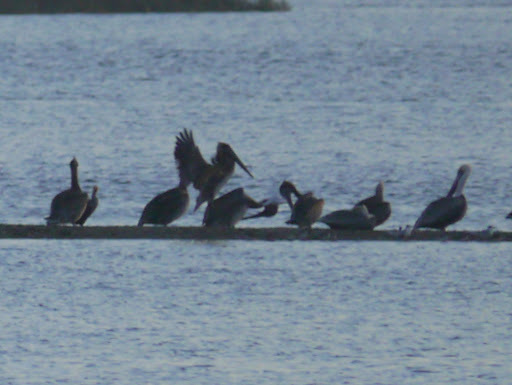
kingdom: Animalia
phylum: Chordata
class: Aves
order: Pelecaniformes
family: Pelecanidae
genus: Pelecanus
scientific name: Pelecanus occidentalis
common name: Brown pelican
